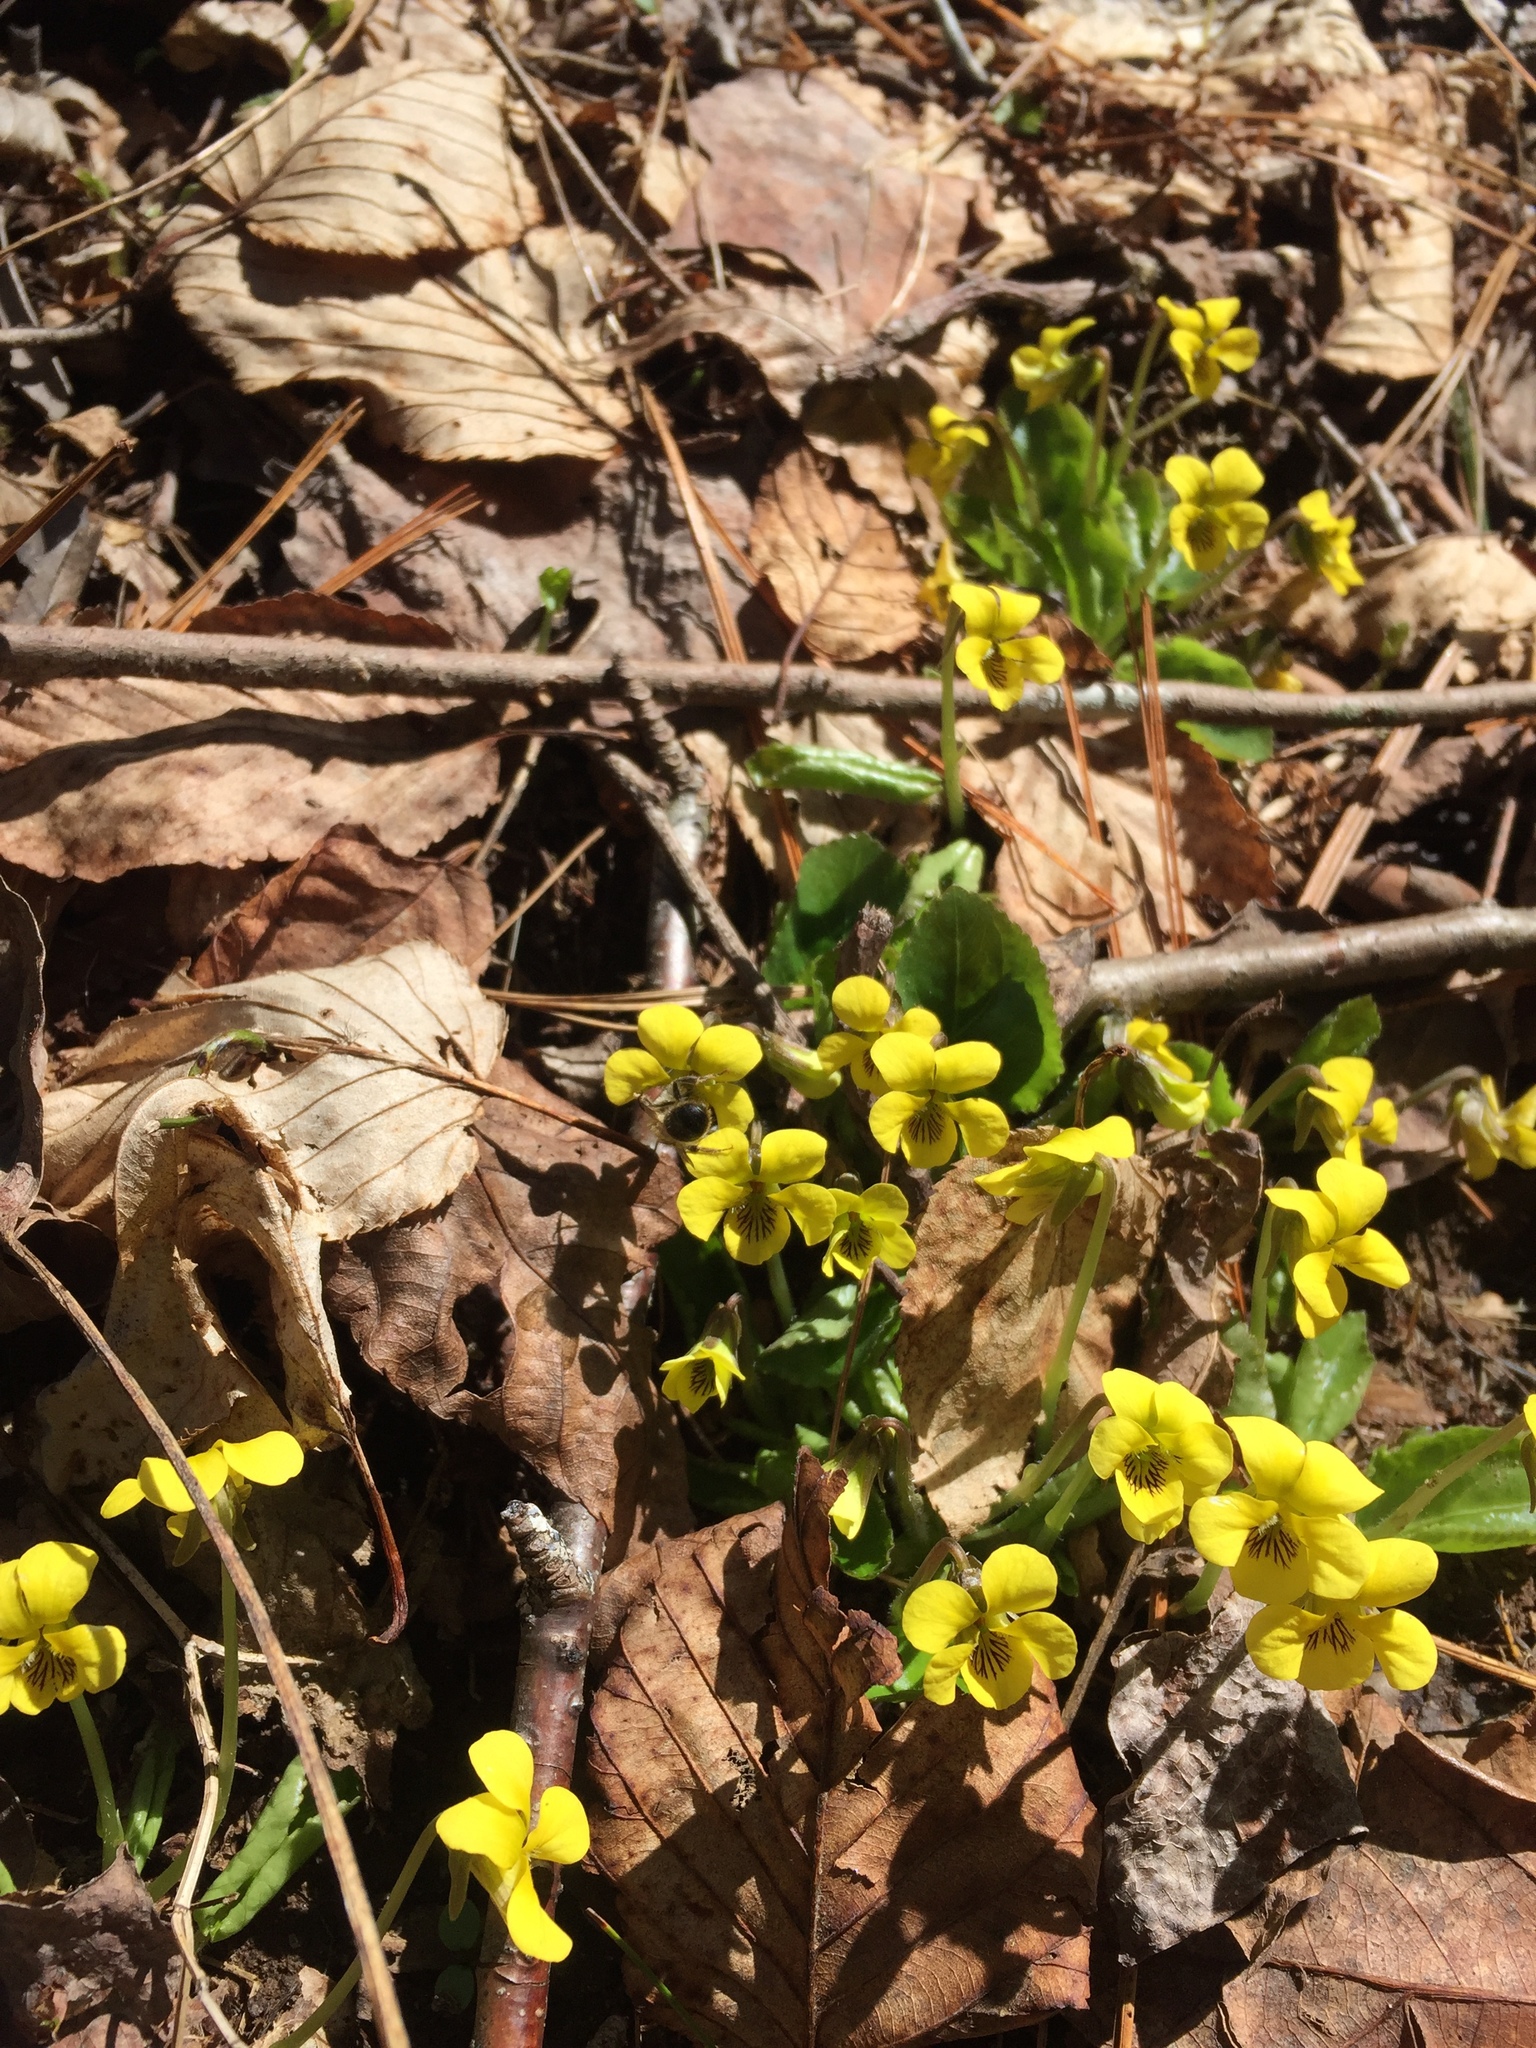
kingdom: Plantae
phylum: Tracheophyta
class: Magnoliopsida
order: Malpighiales
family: Violaceae
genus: Viola
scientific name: Viola rotundifolia
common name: Early yellow violet
